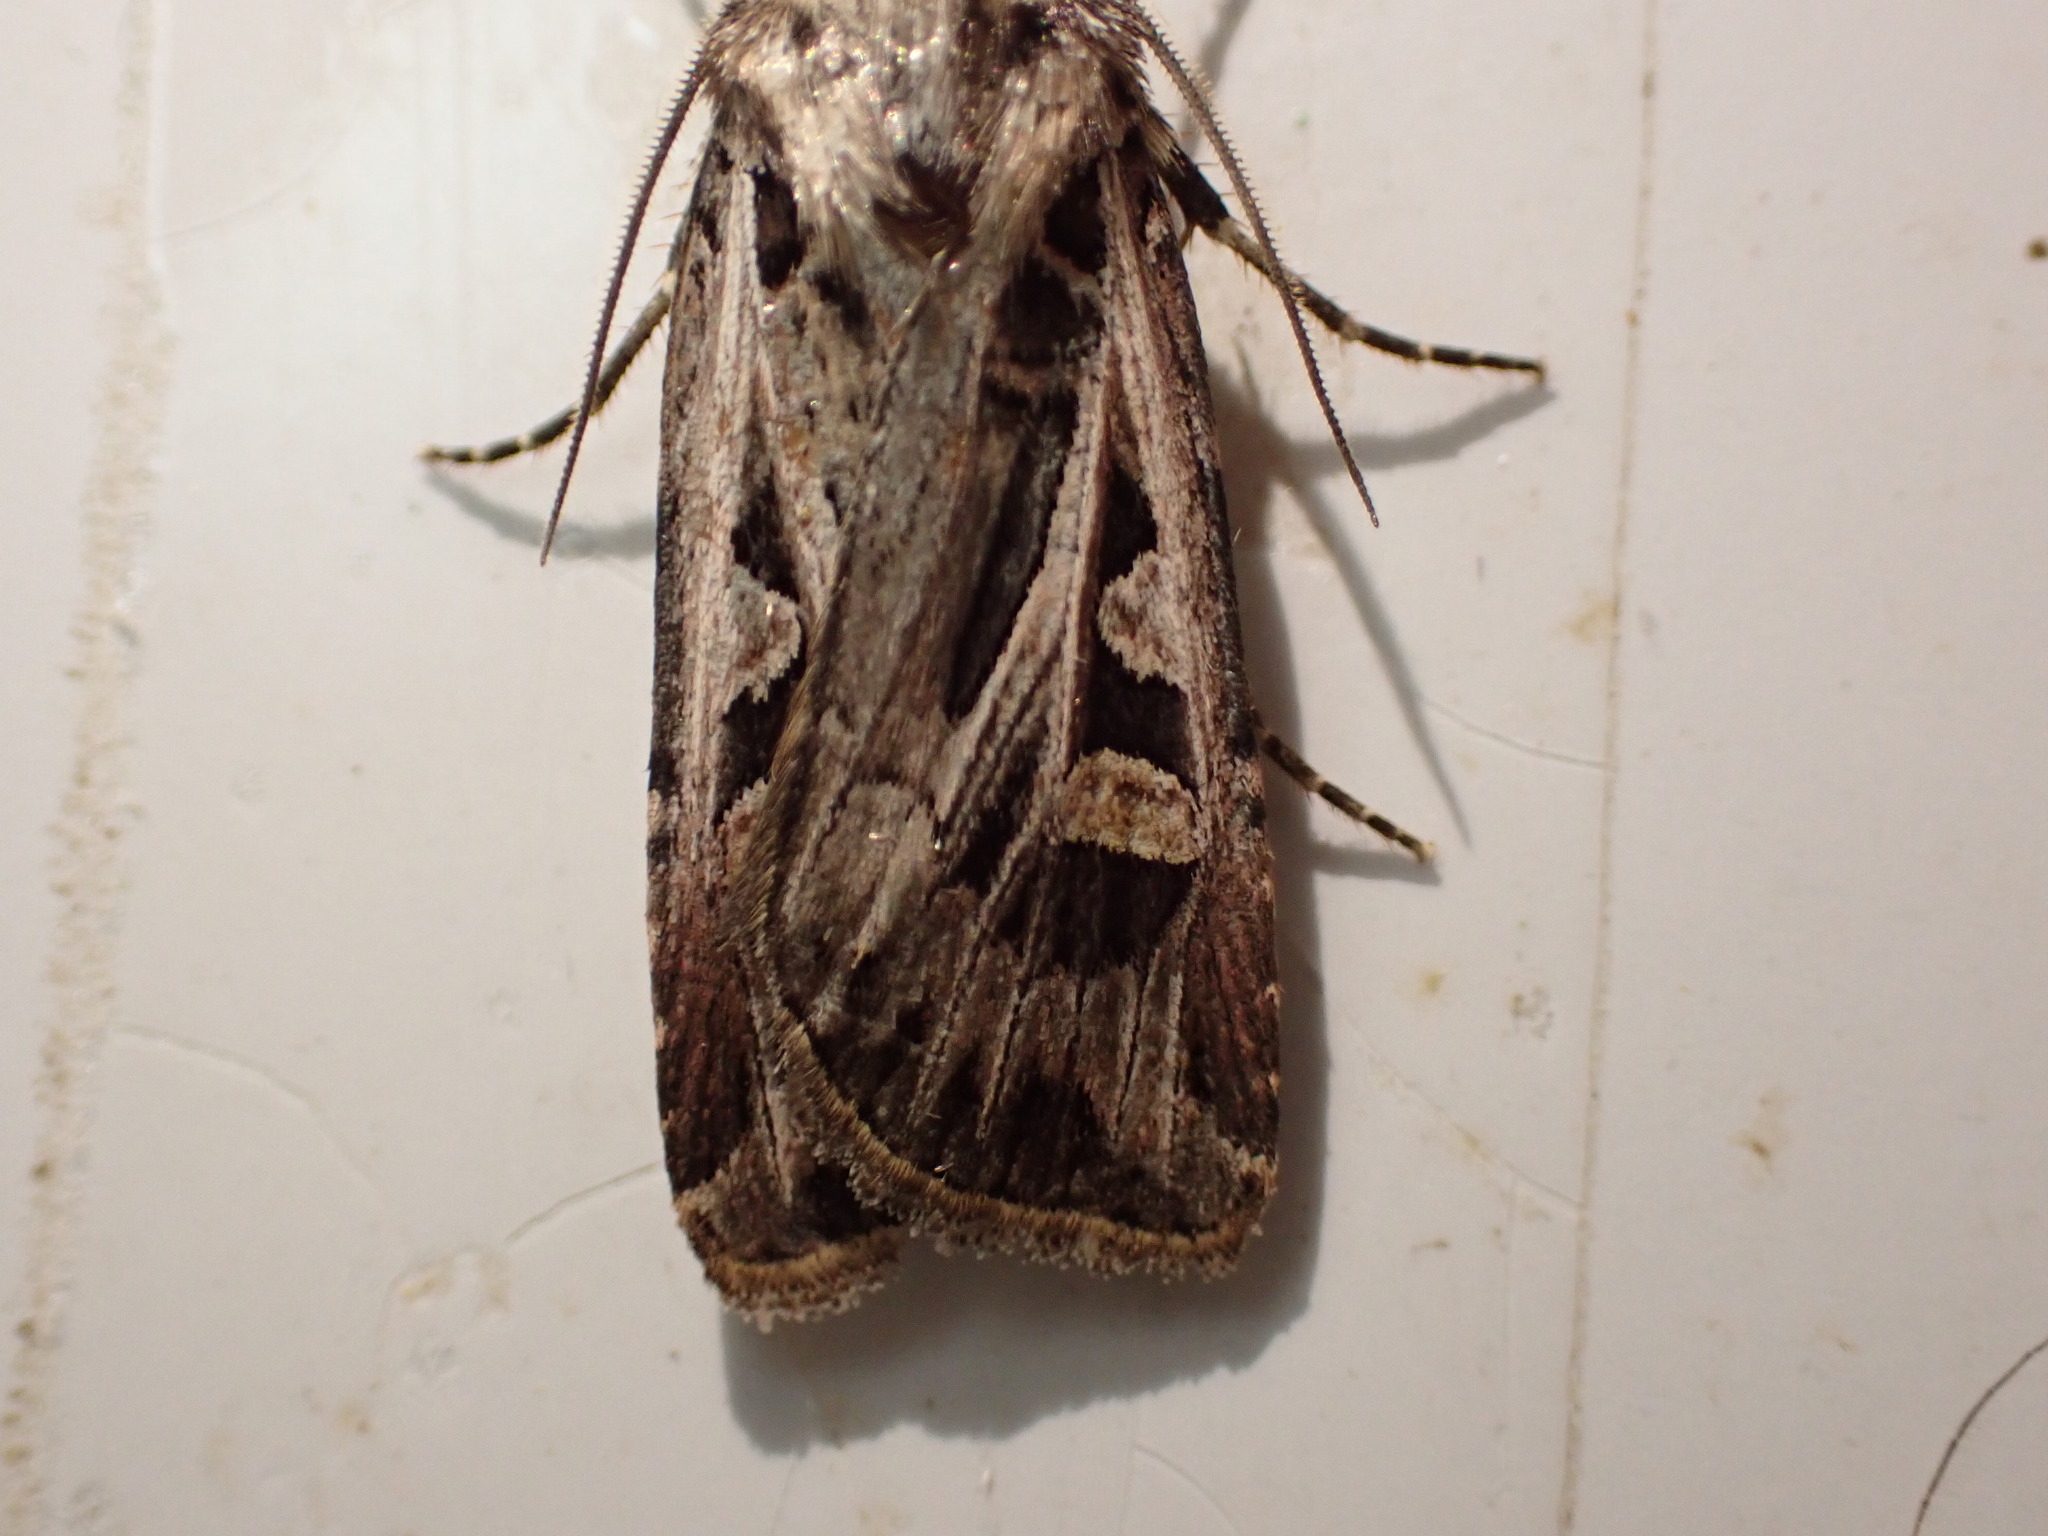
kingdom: Animalia
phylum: Arthropoda
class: Insecta
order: Lepidoptera
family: Noctuidae
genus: Feltia
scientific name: Feltia jaculifera
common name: Dingy cutworm moth
